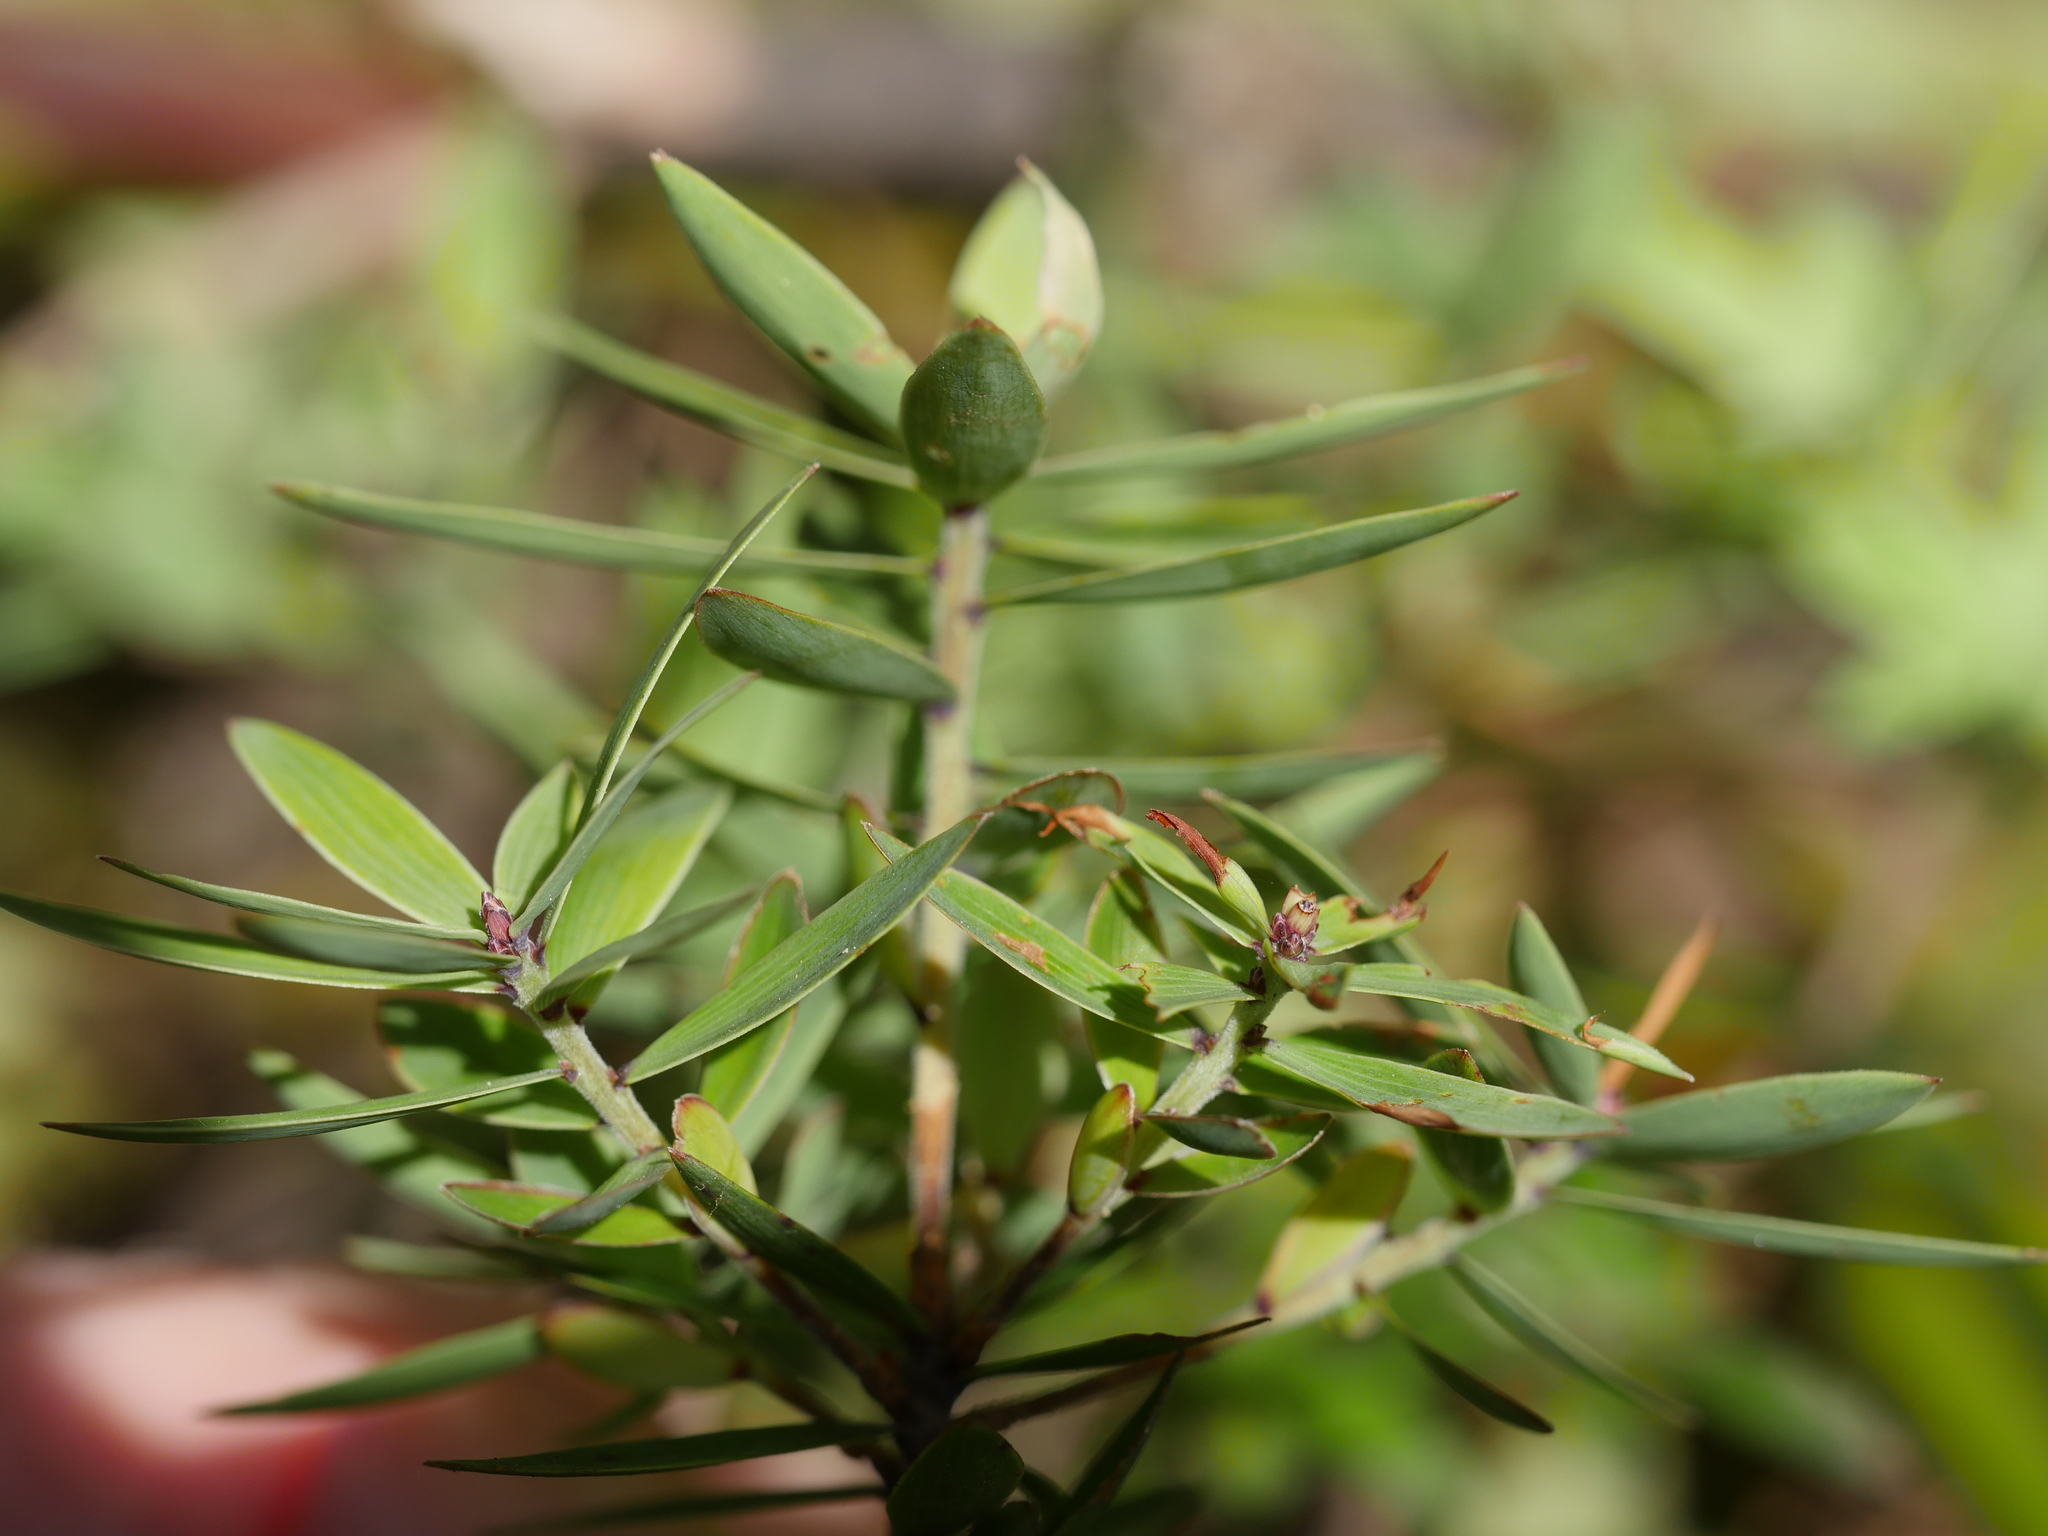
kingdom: Plantae
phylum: Tracheophyta
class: Magnoliopsida
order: Ericales
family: Ericaceae
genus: Leucopogon
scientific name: Leucopogon fasciculatus
